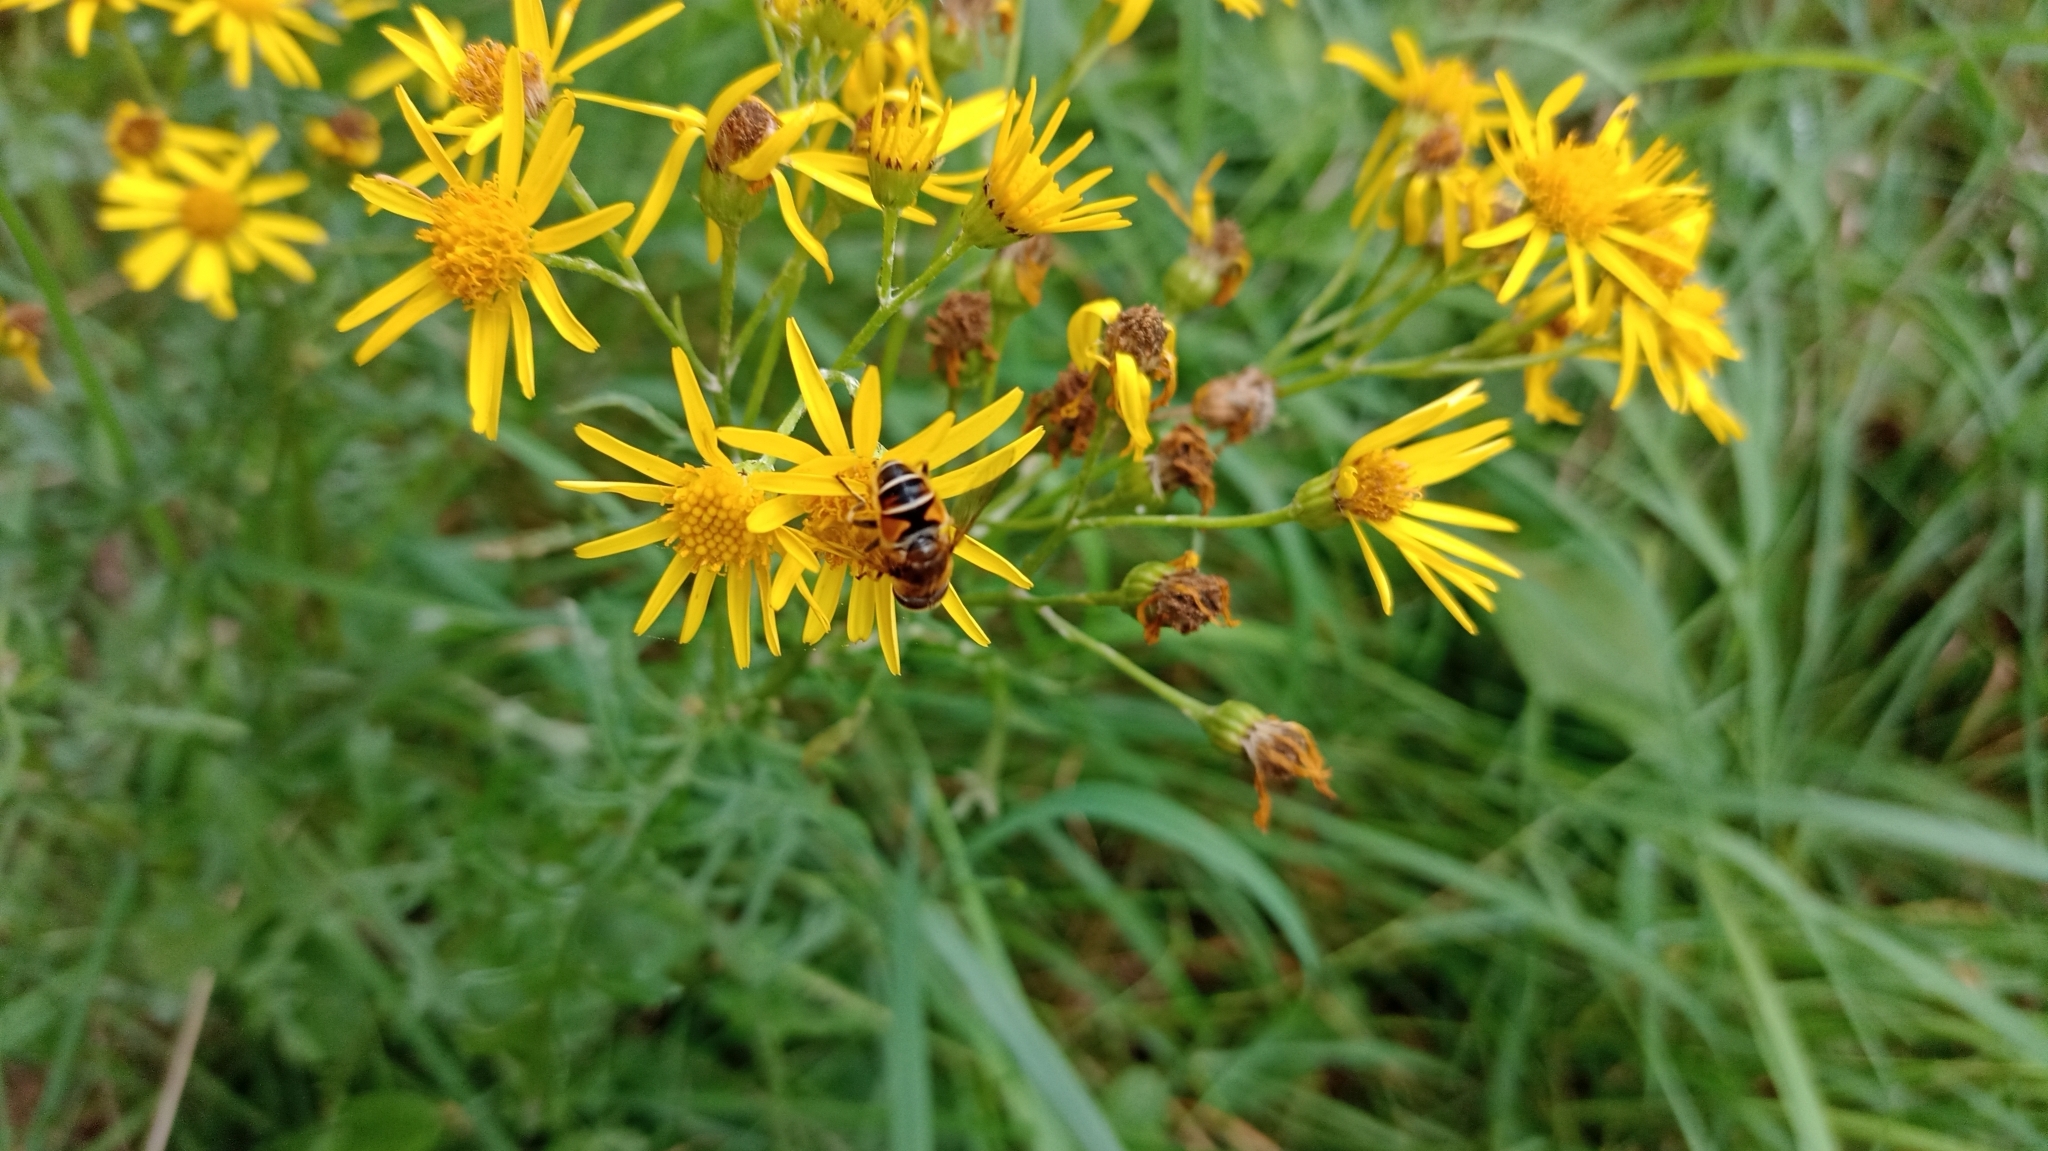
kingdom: Animalia
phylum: Arthropoda
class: Insecta
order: Diptera
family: Syrphidae
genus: Eristalis
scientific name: Eristalis nemorum
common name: Orange-spined drone fly
